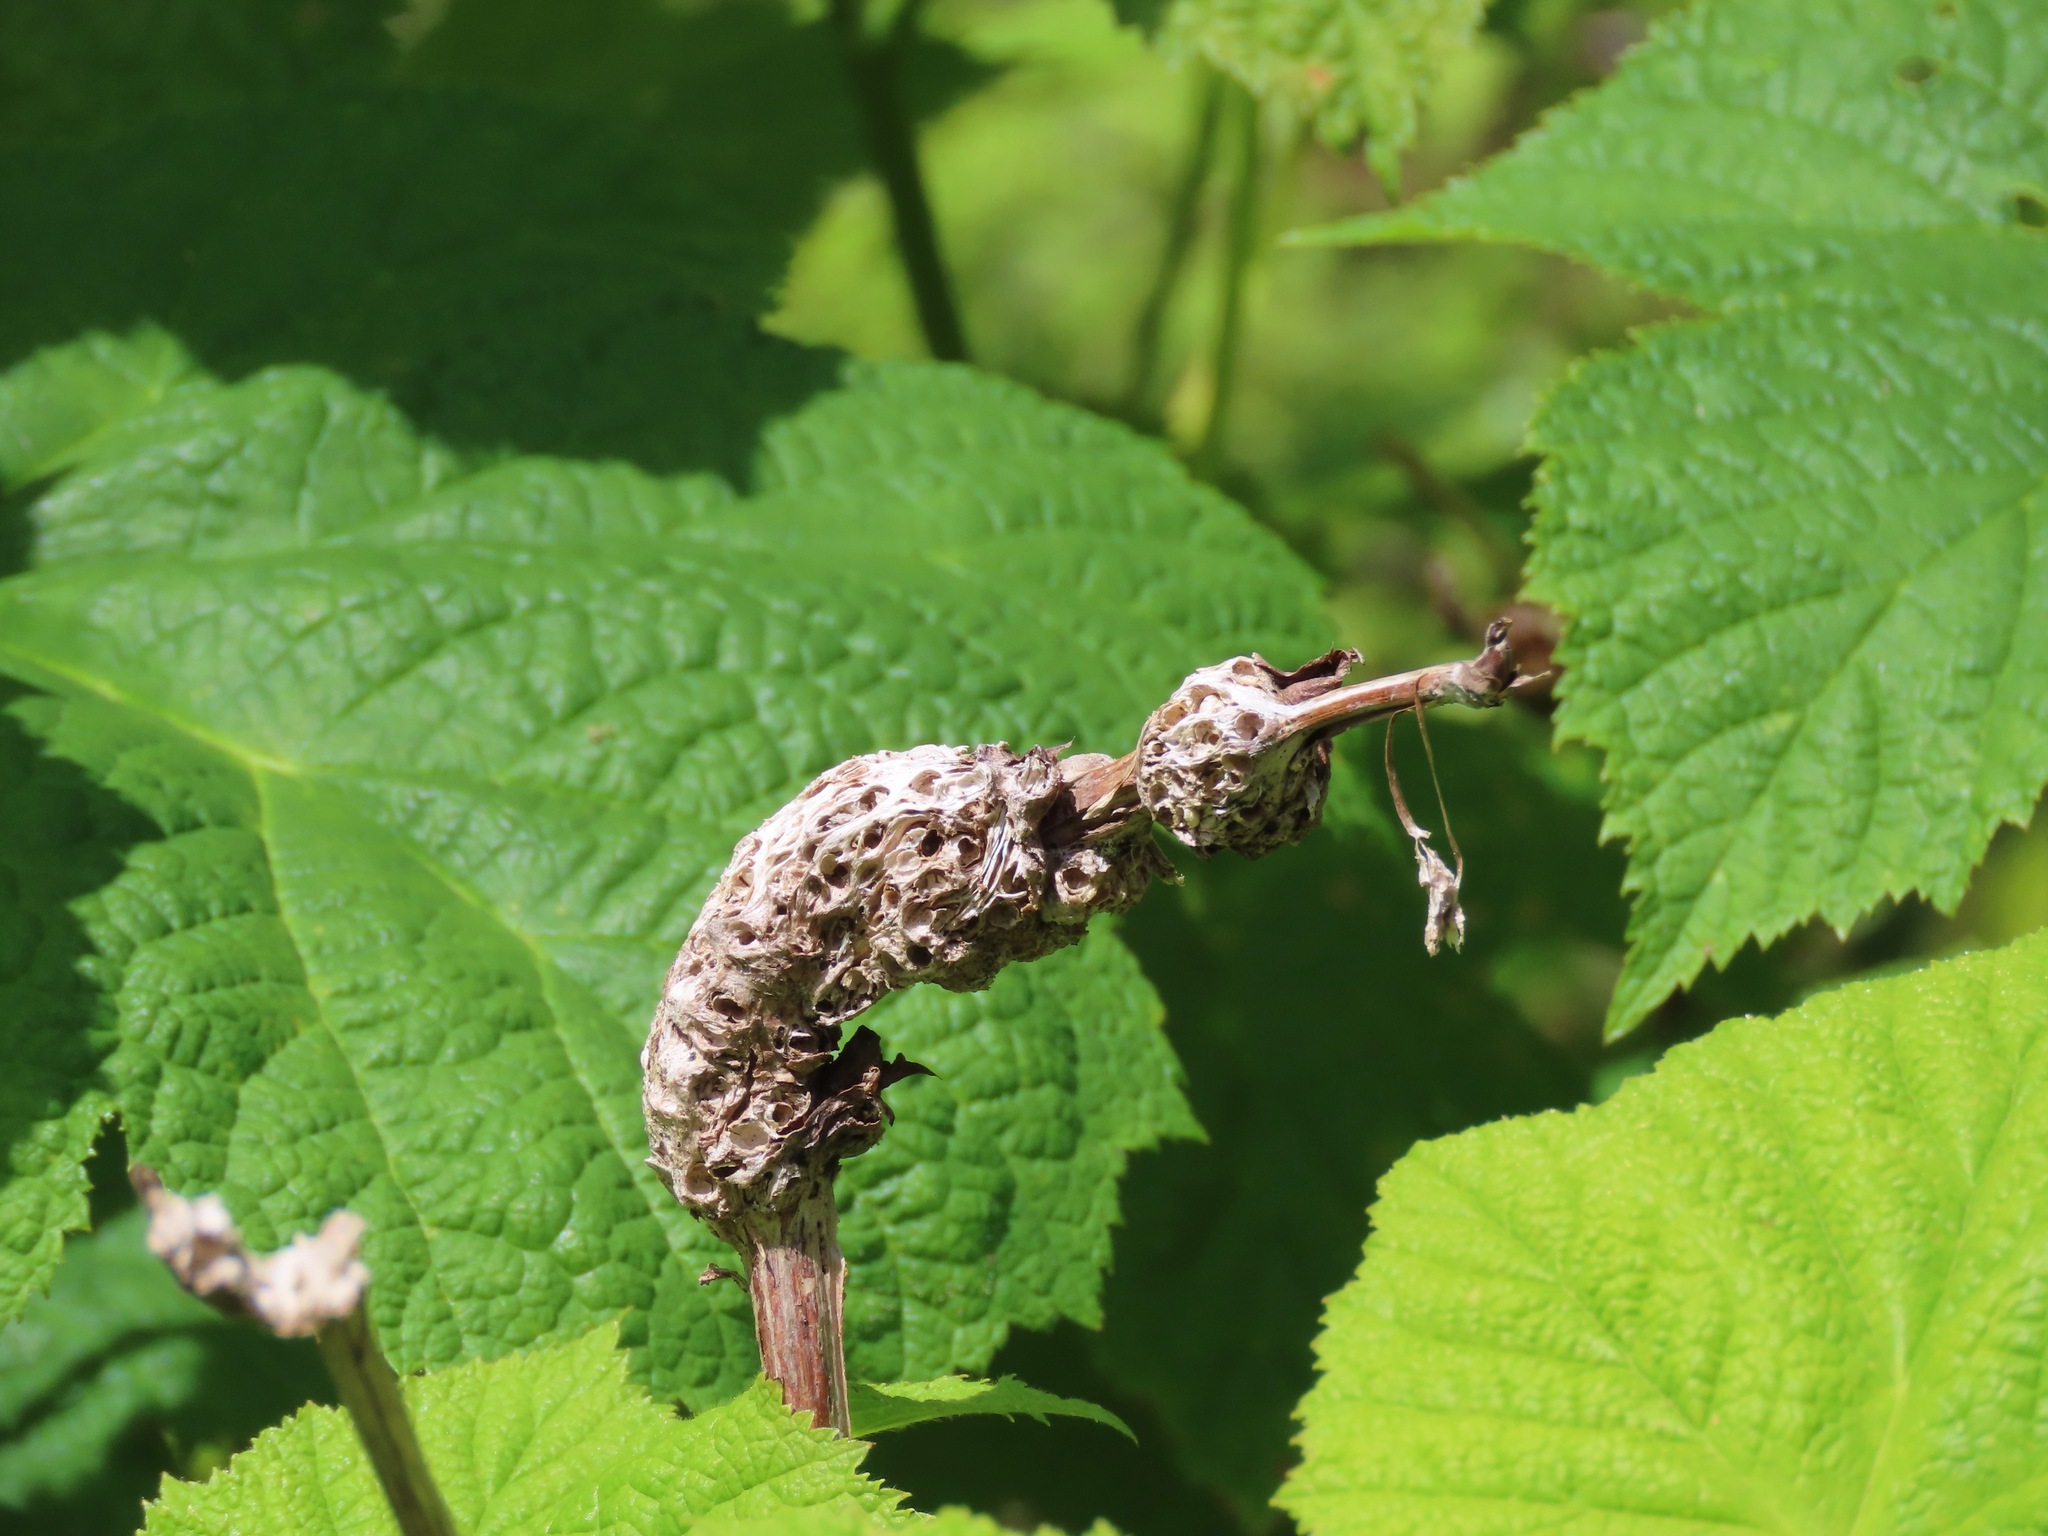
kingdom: Animalia
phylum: Arthropoda
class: Insecta
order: Hymenoptera
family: Cynipidae
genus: Diastrophus
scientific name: Diastrophus
